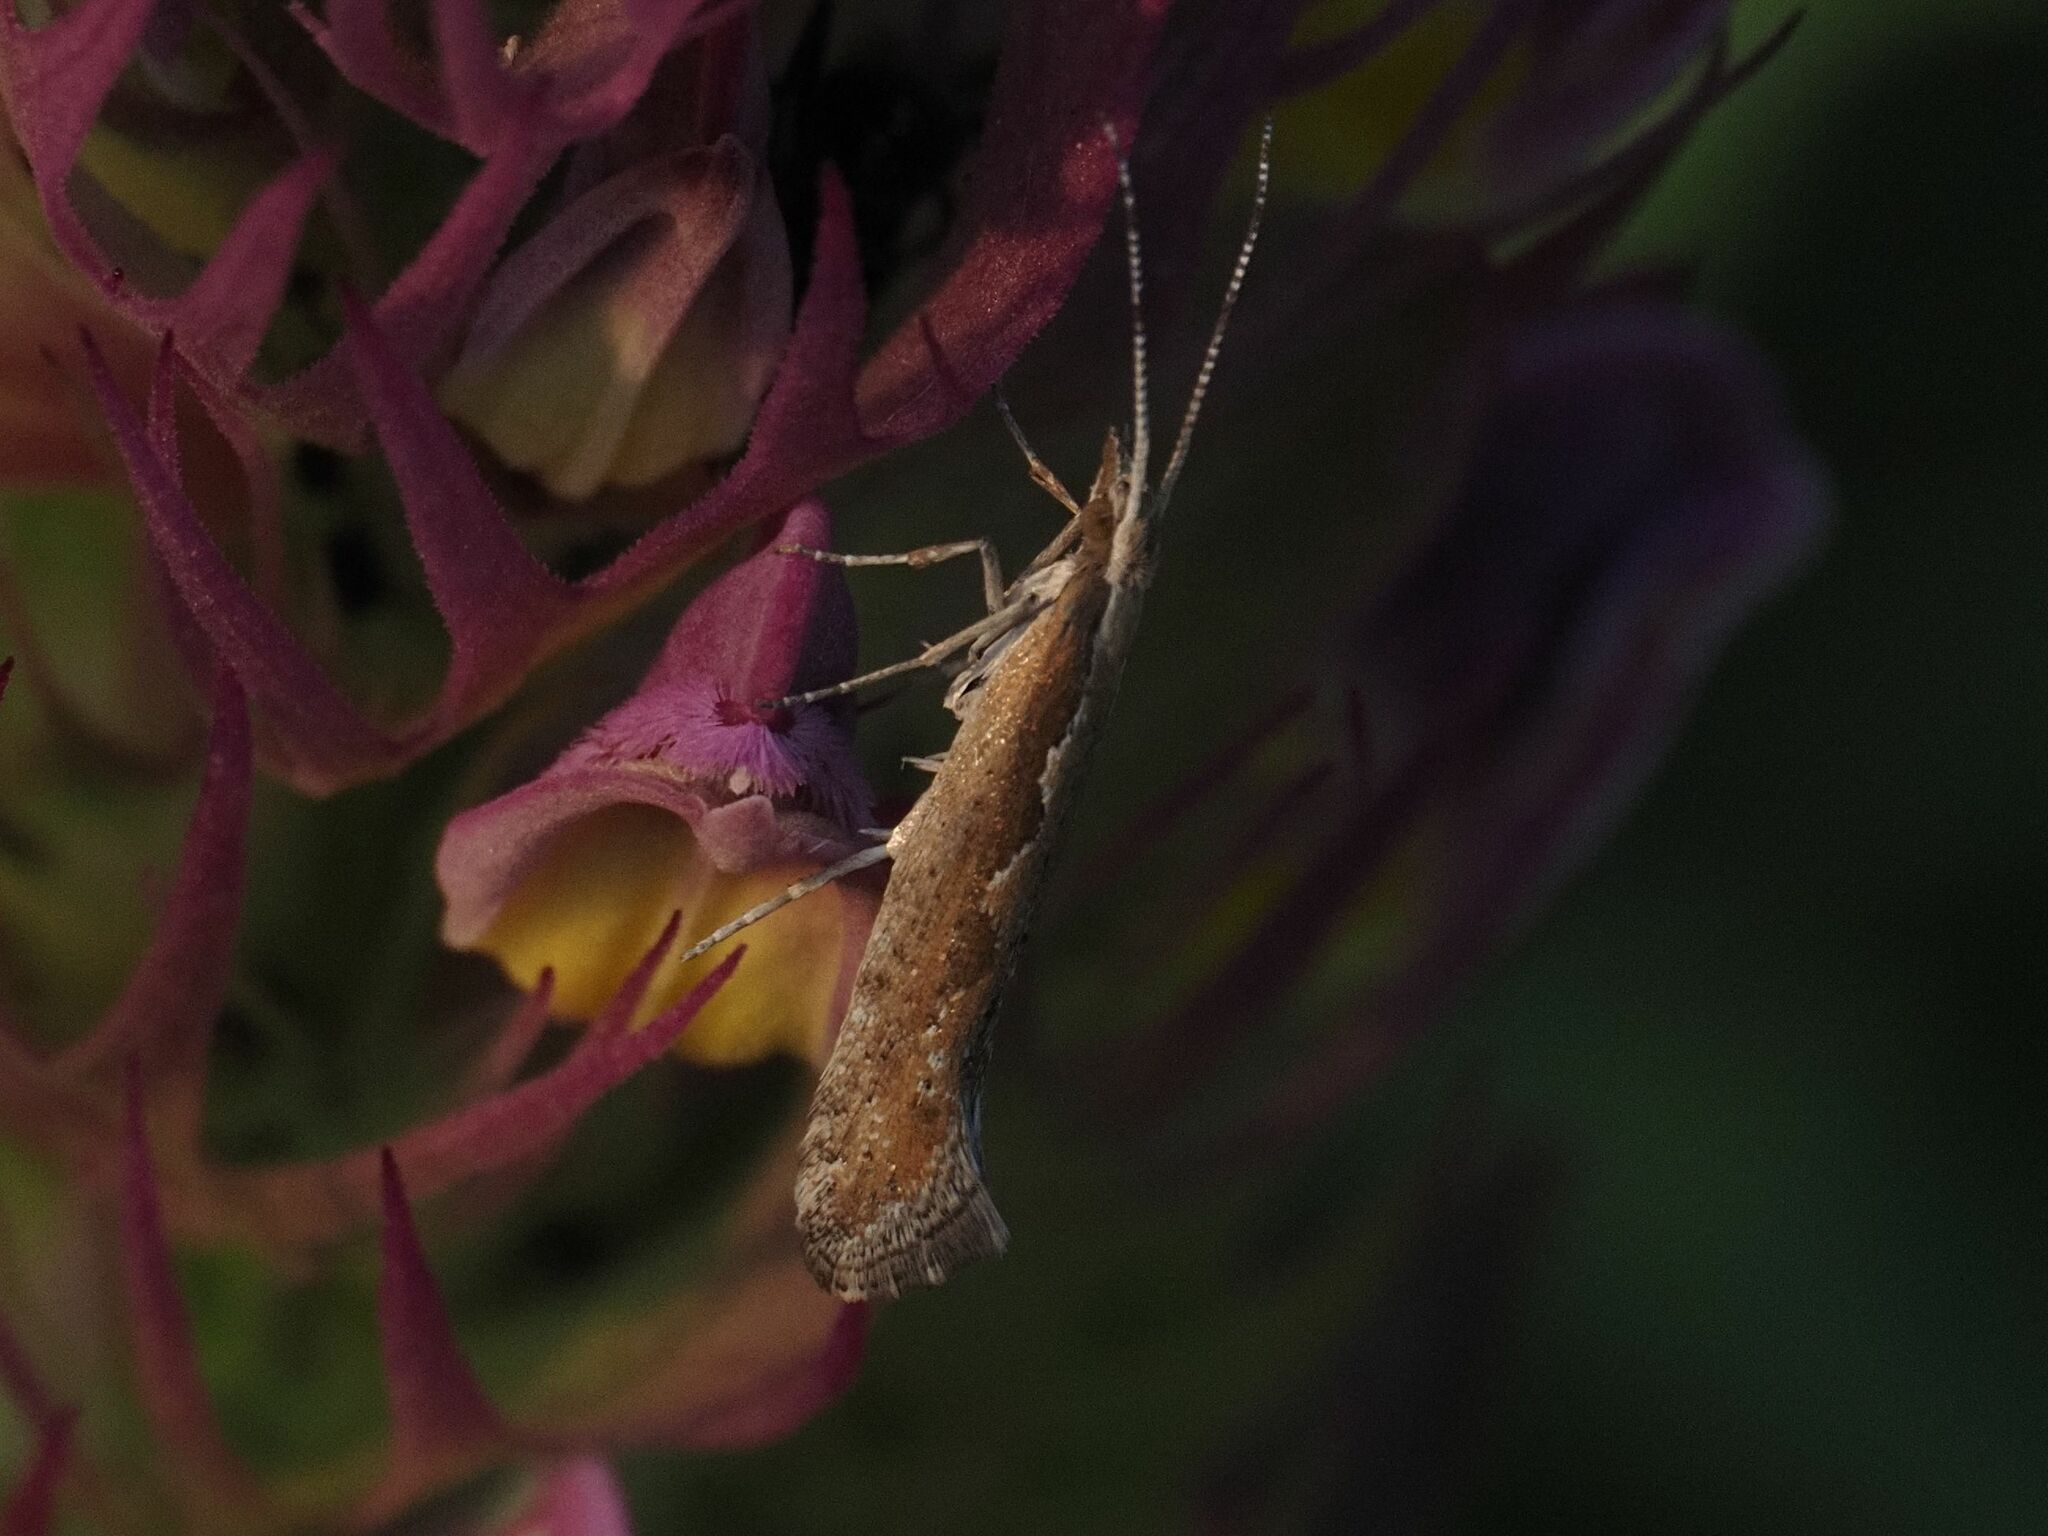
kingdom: Animalia
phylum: Arthropoda
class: Insecta
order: Lepidoptera
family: Plutellidae
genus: Plutella
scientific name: Plutella xylostella
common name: Diamond-back moth
